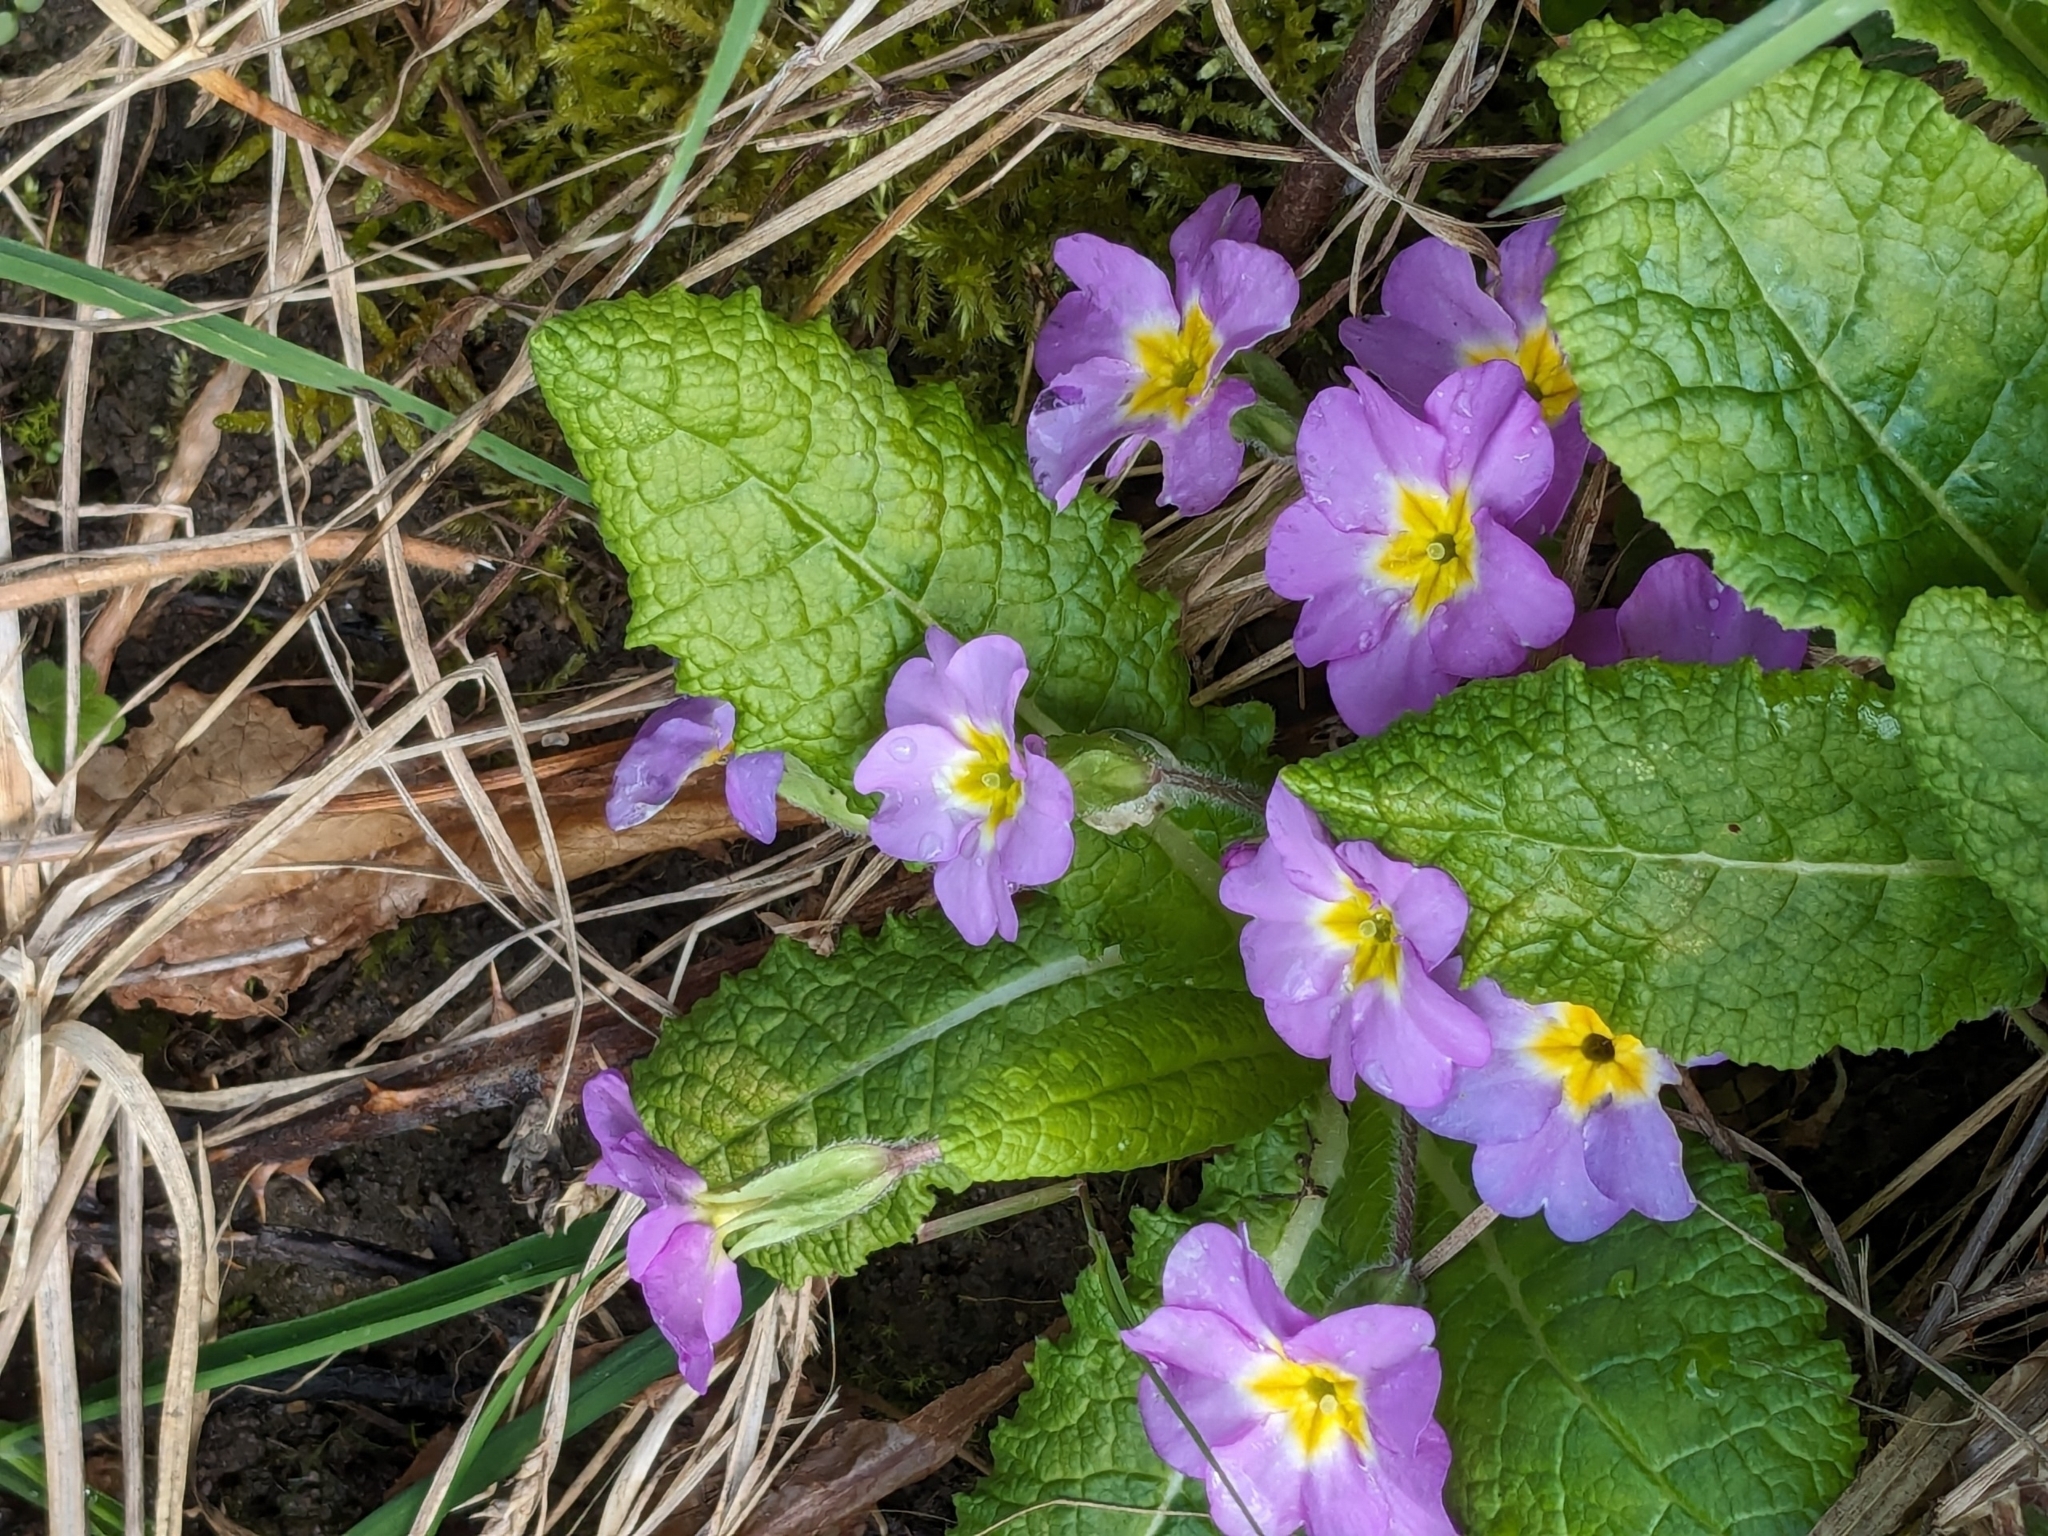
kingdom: Plantae
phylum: Tracheophyta
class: Magnoliopsida
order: Ericales
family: Primulaceae
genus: Primula
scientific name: Primula vulgaris
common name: Primrose
